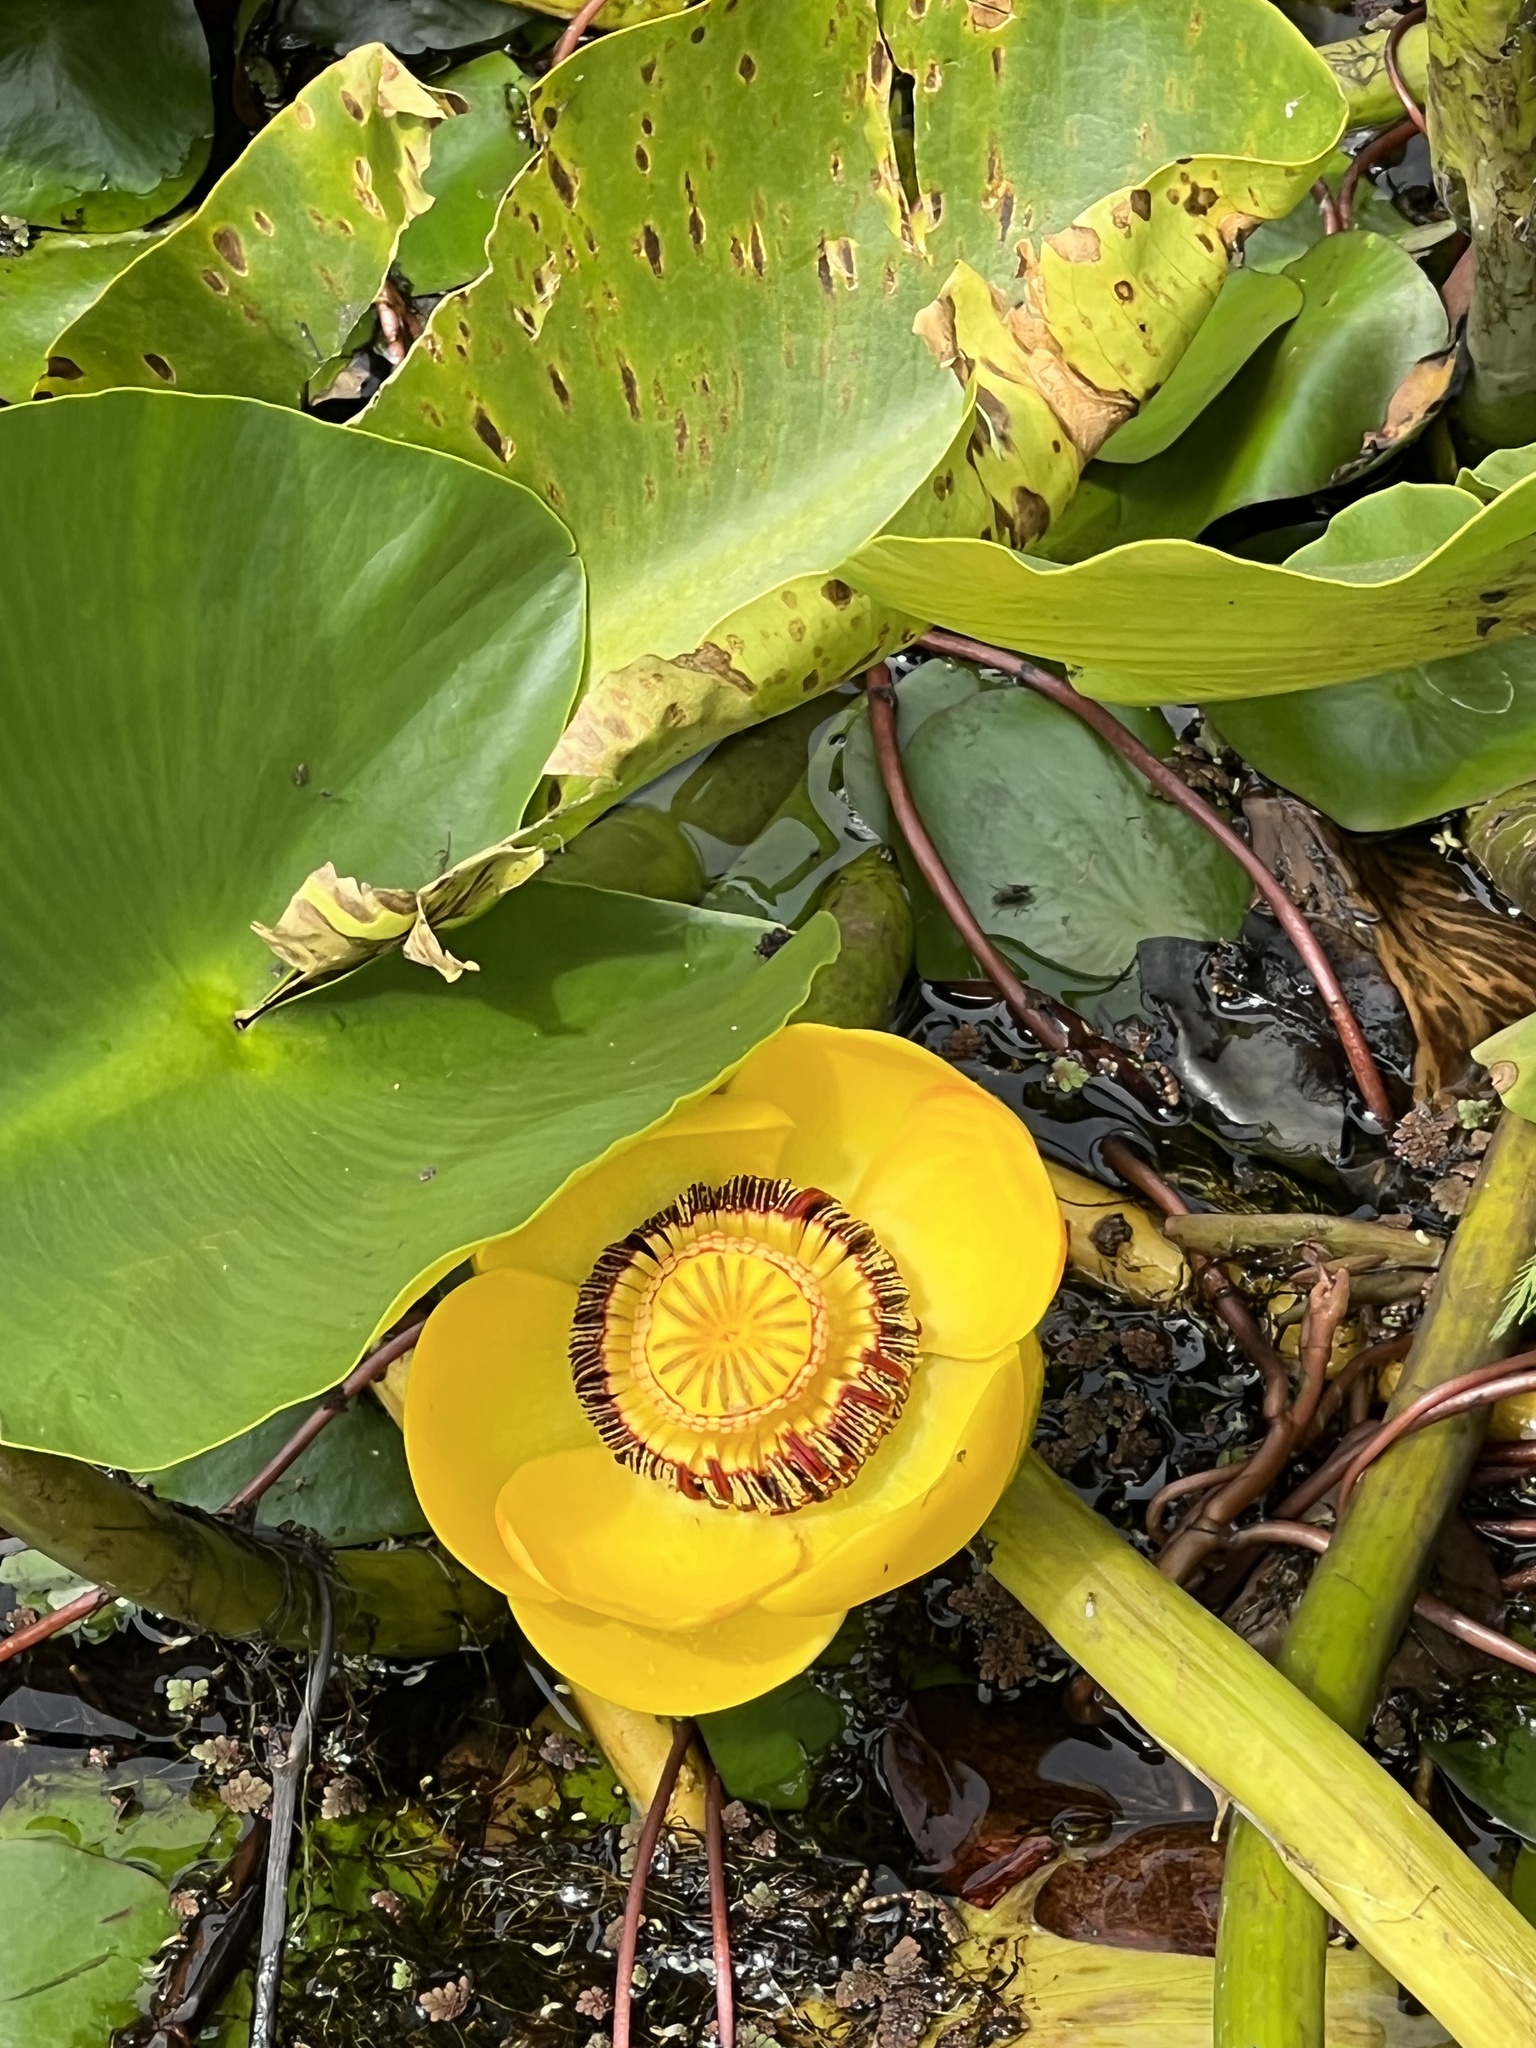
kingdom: Plantae
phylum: Tracheophyta
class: Magnoliopsida
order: Nymphaeales
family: Nymphaeaceae
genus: Nuphar
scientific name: Nuphar polysepala
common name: Rocky mountain cow-lily
